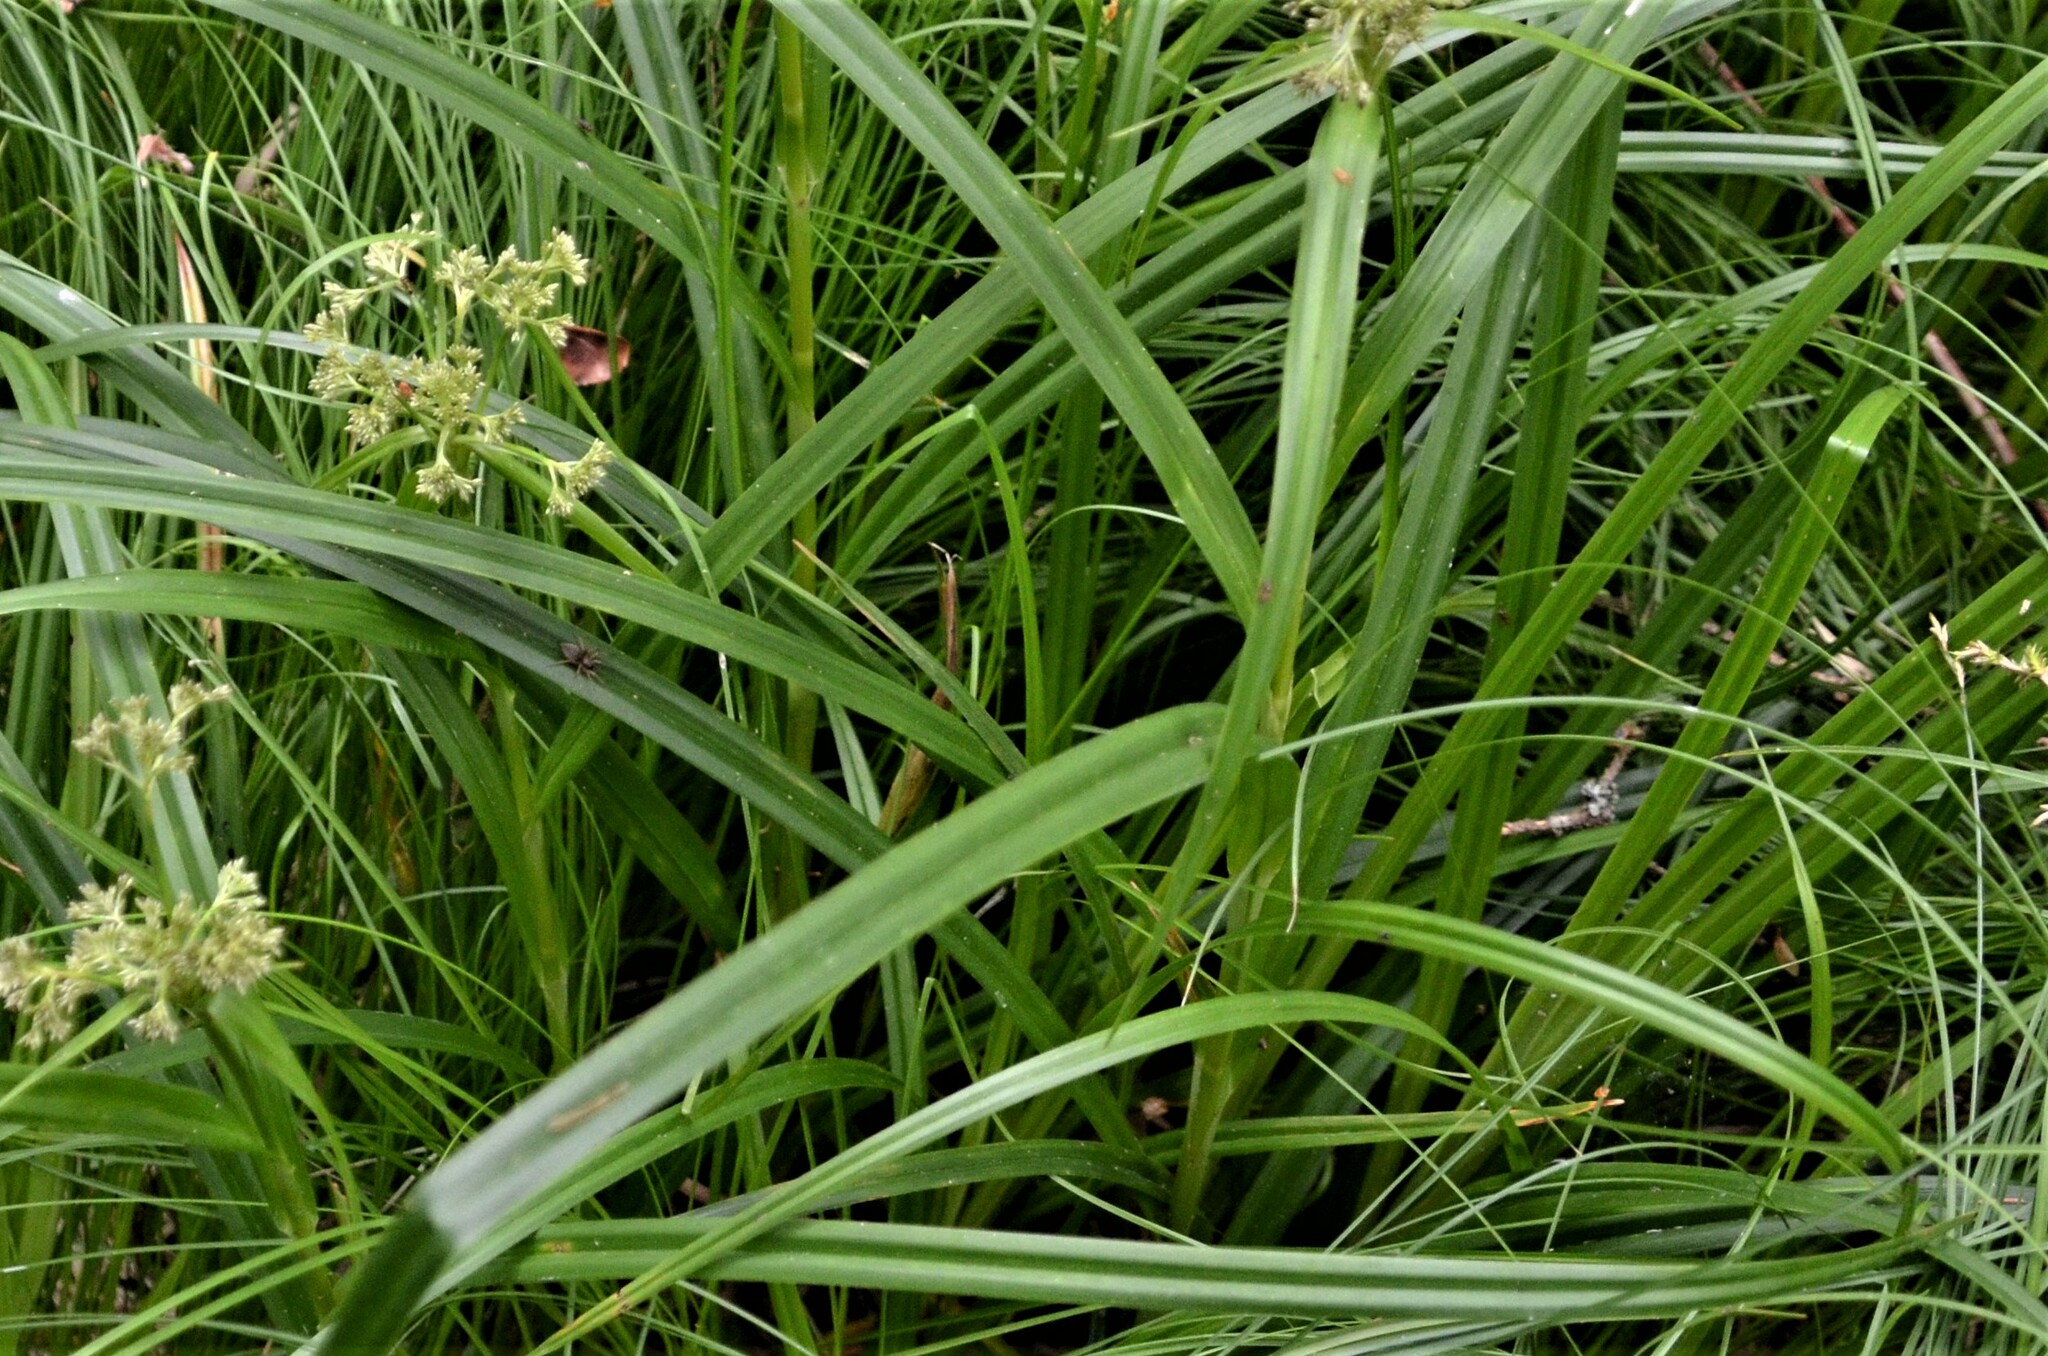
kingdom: Plantae
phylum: Tracheophyta
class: Liliopsida
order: Poales
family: Cyperaceae
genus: Scirpus
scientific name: Scirpus sylvaticus
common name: Wood club-rush
